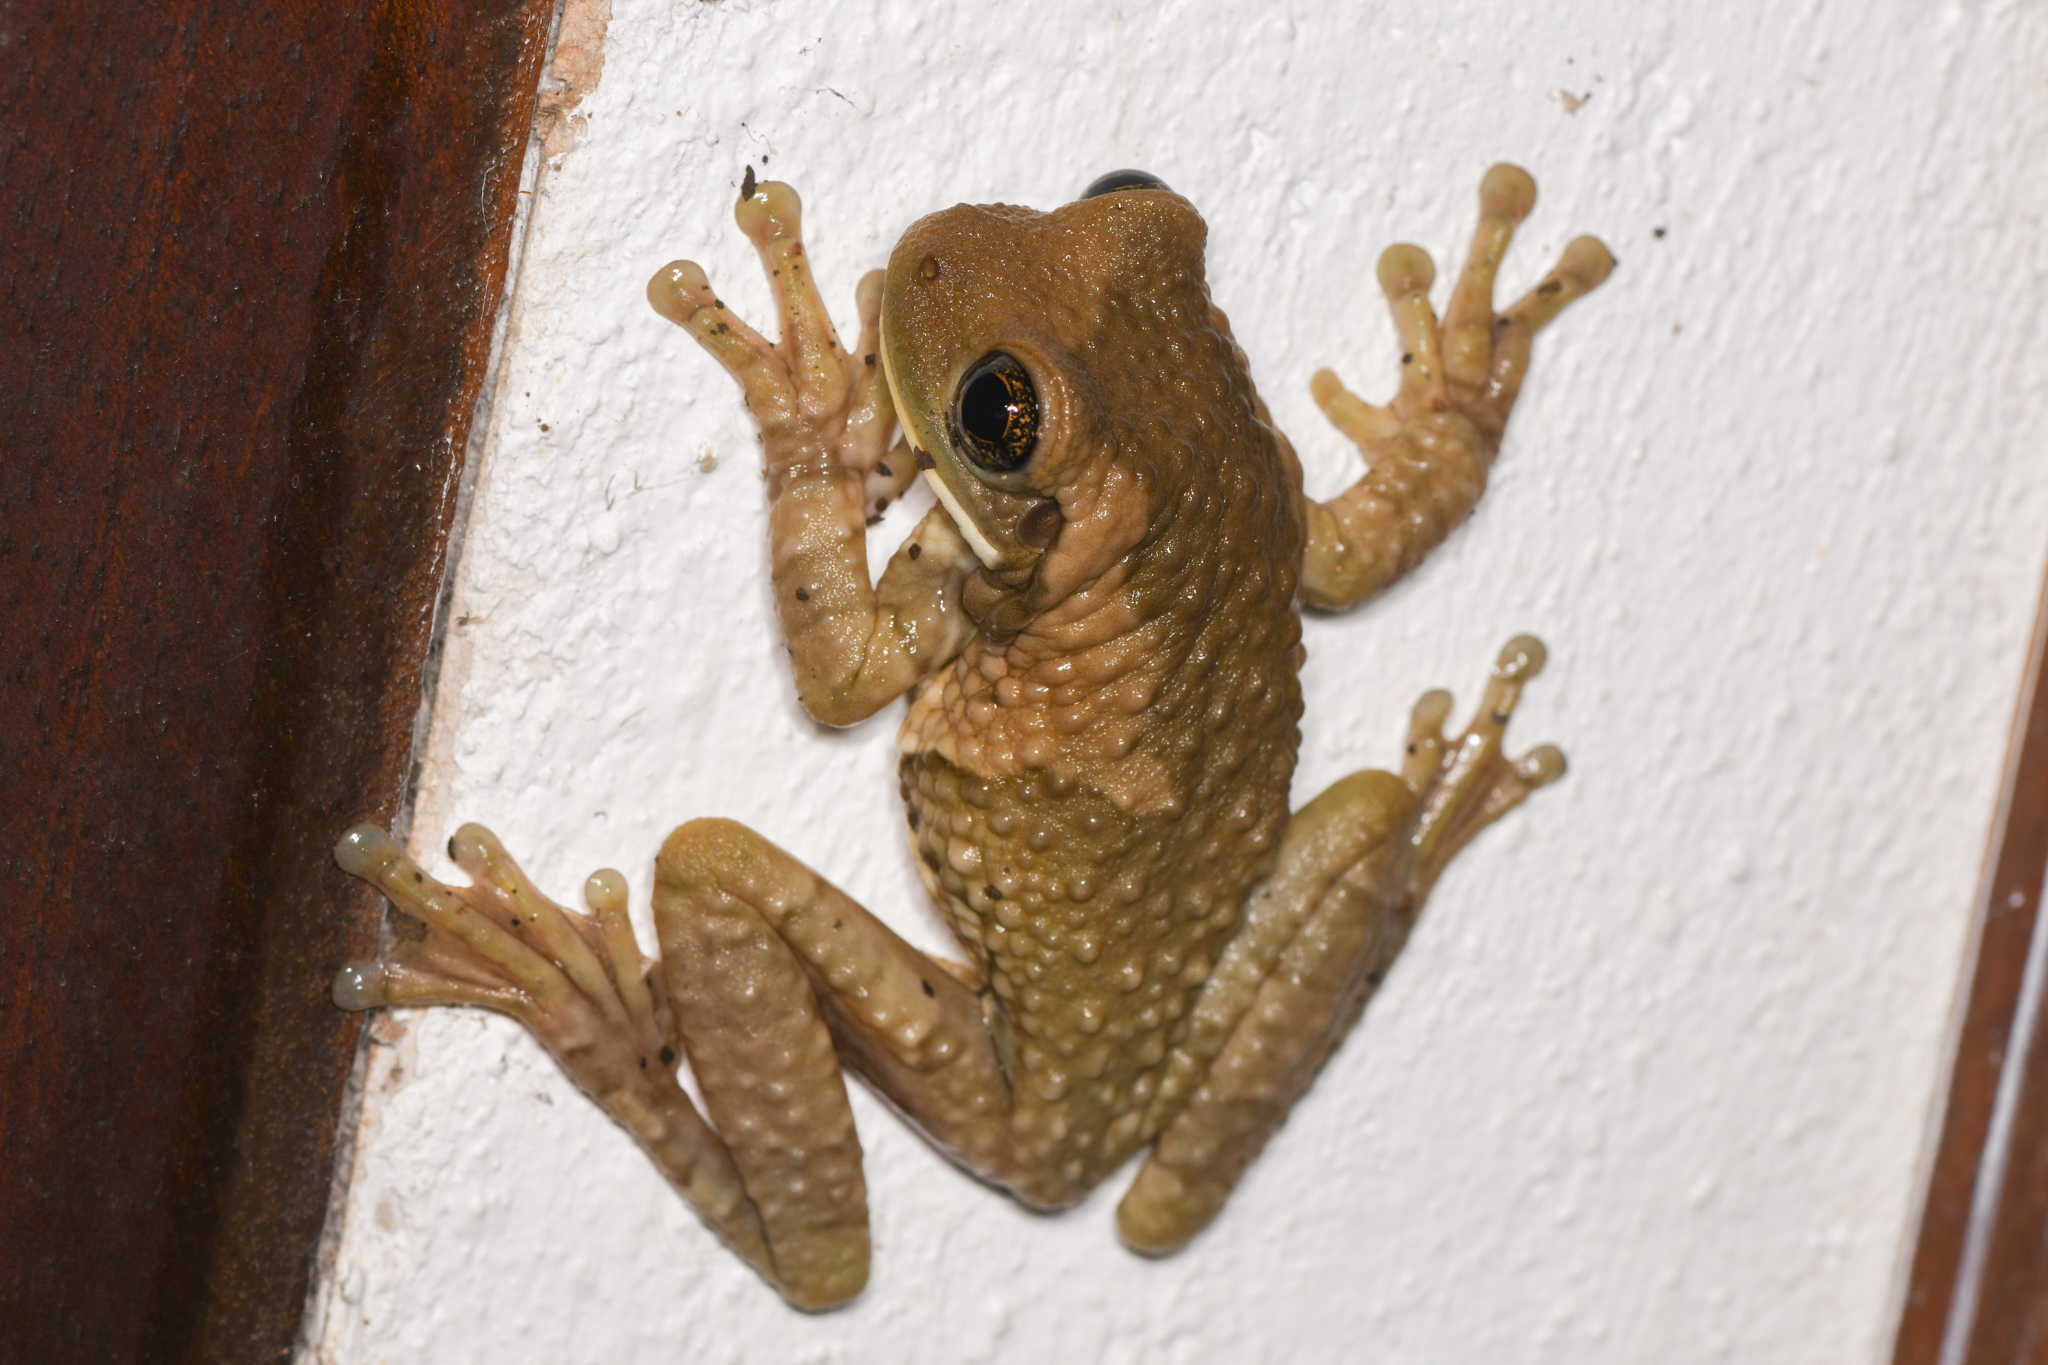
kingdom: Animalia
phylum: Chordata
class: Amphibia
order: Anura
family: Hylidae
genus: Trachycephalus
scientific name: Trachycephalus vermiculatus
